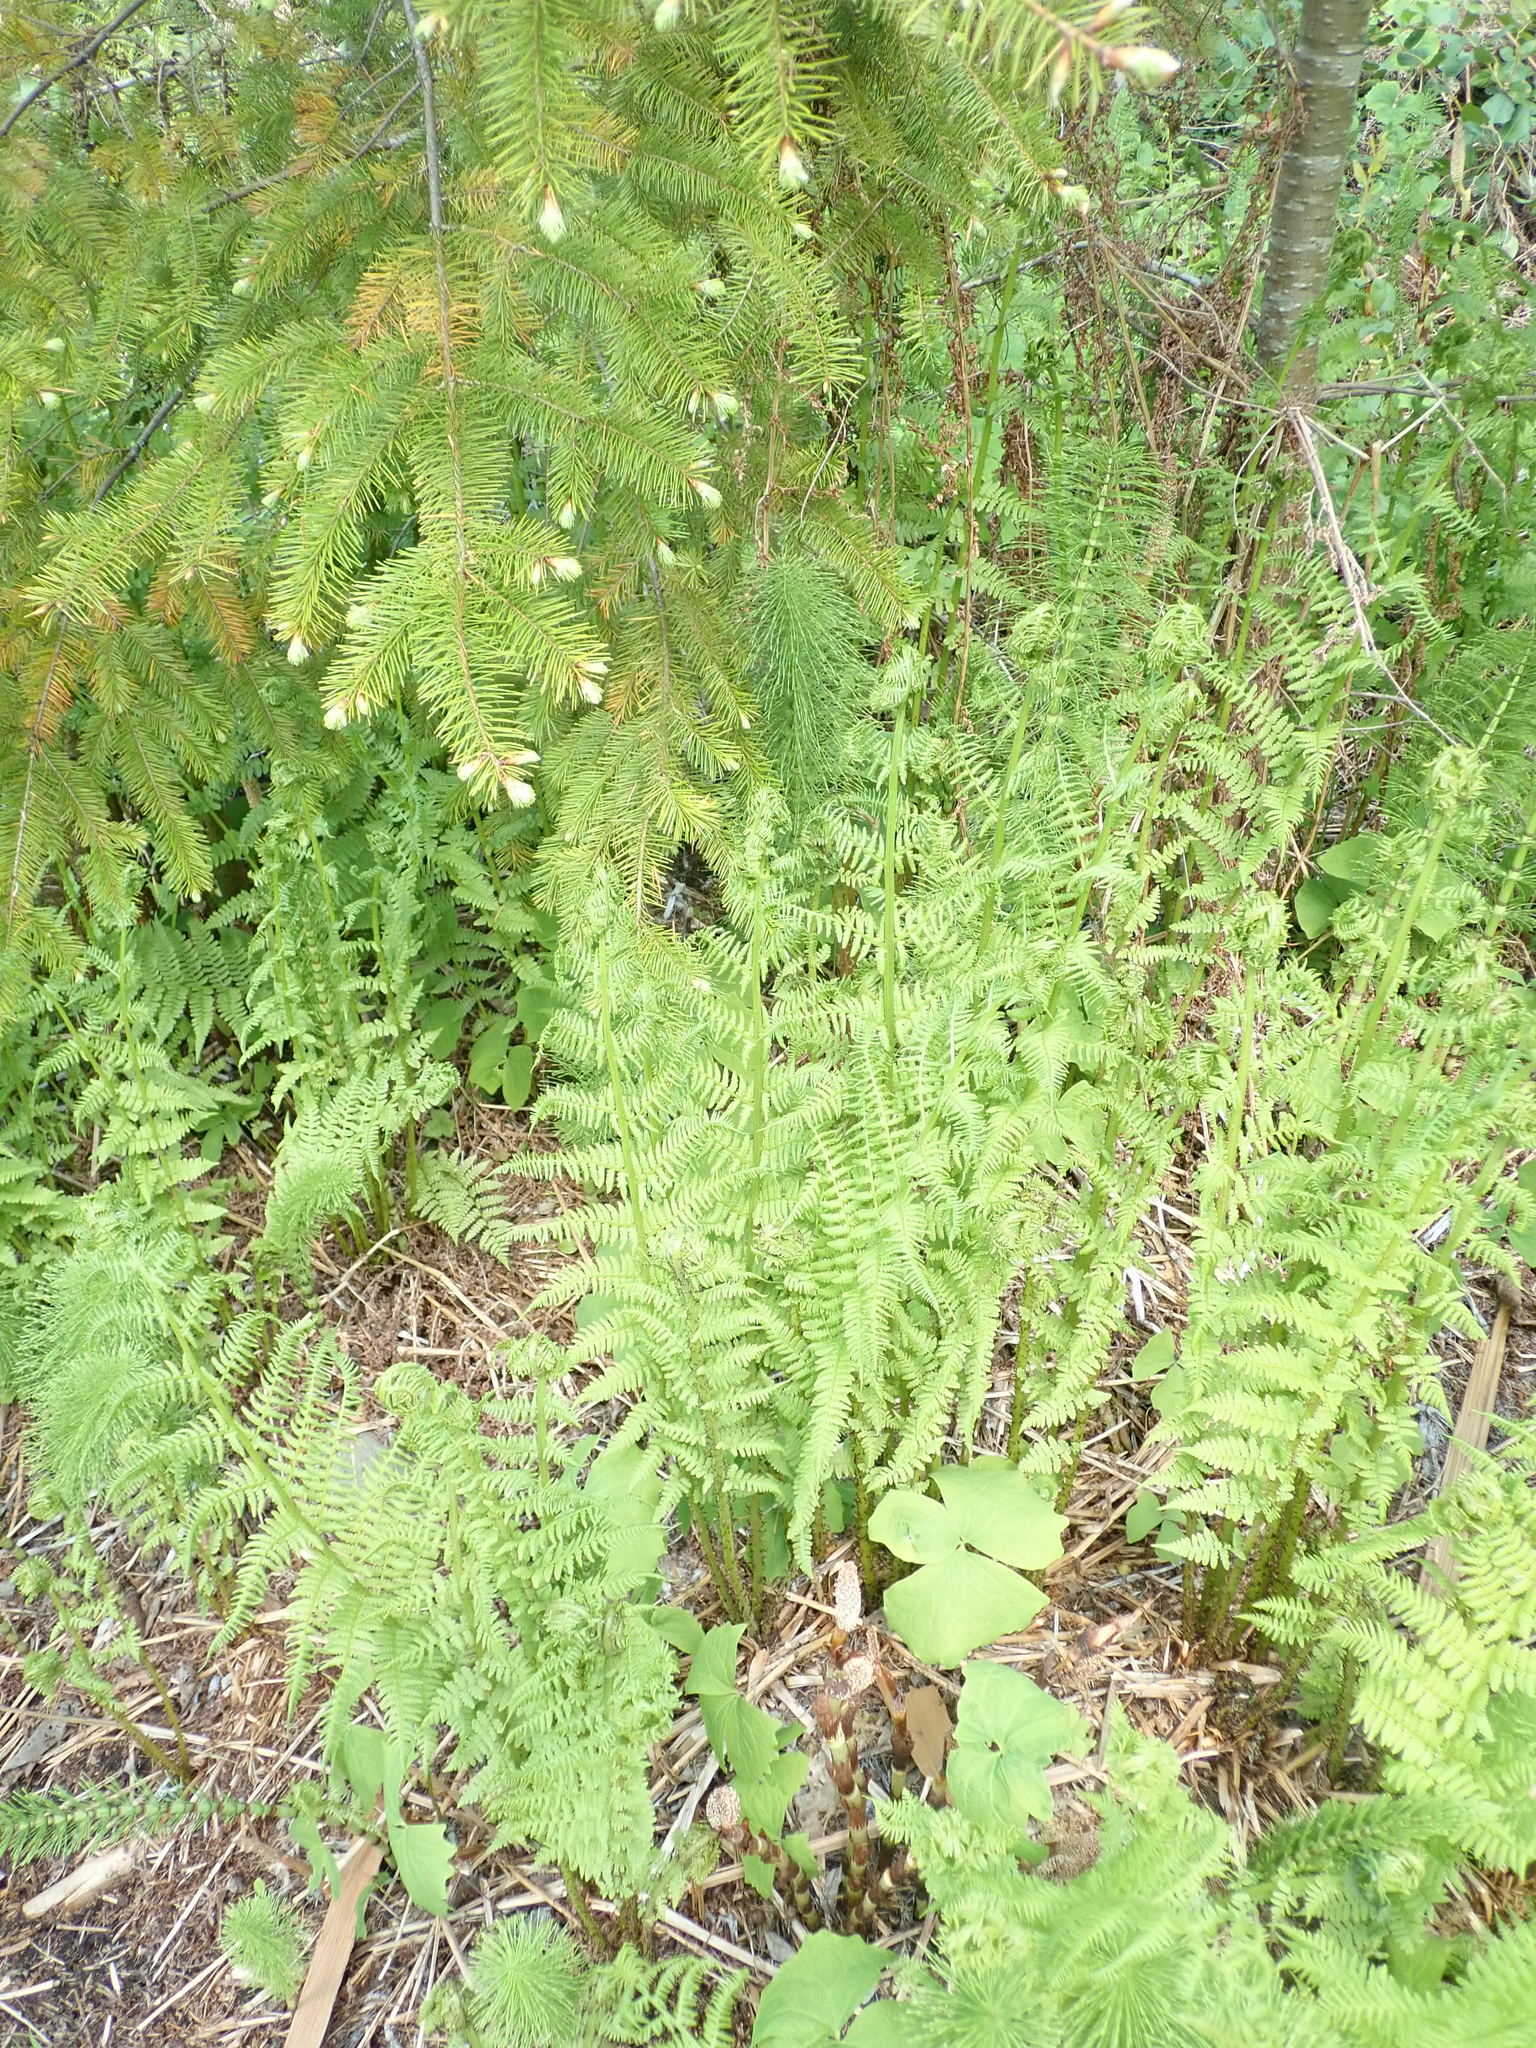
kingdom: Plantae
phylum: Tracheophyta
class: Polypodiopsida
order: Polypodiales
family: Athyriaceae
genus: Athyrium
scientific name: Athyrium filix-femina
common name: Lady fern
